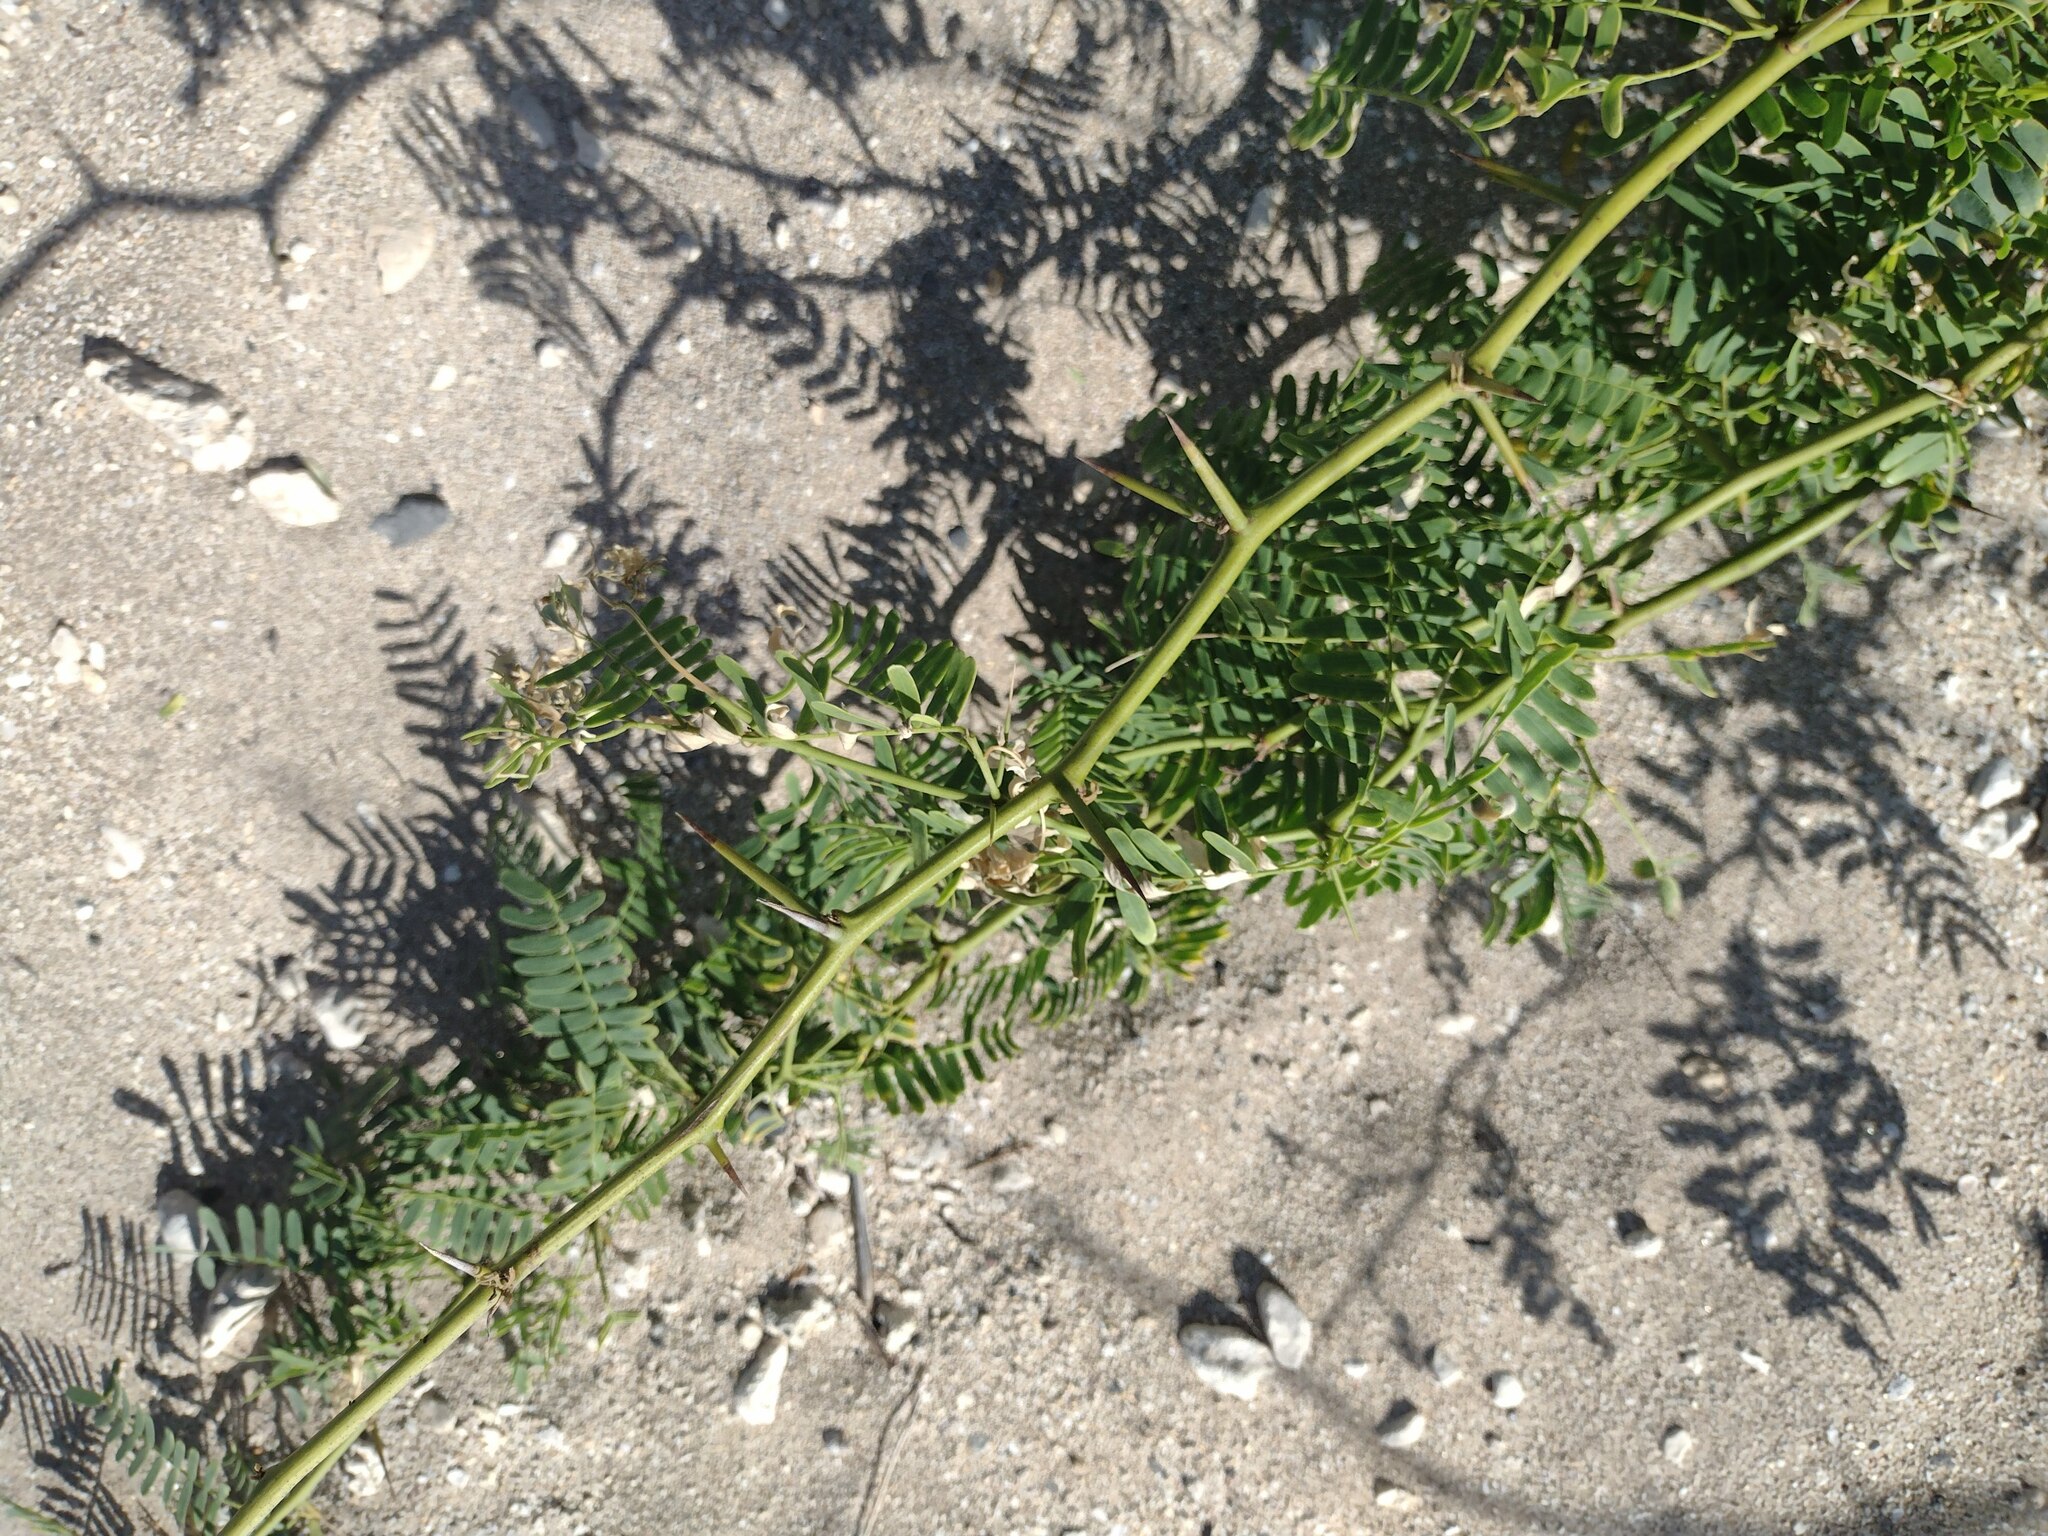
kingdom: Plantae
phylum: Tracheophyta
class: Magnoliopsida
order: Fabales
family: Fabaceae
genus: Prosopis
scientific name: Prosopis juliflora
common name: Mesquite
